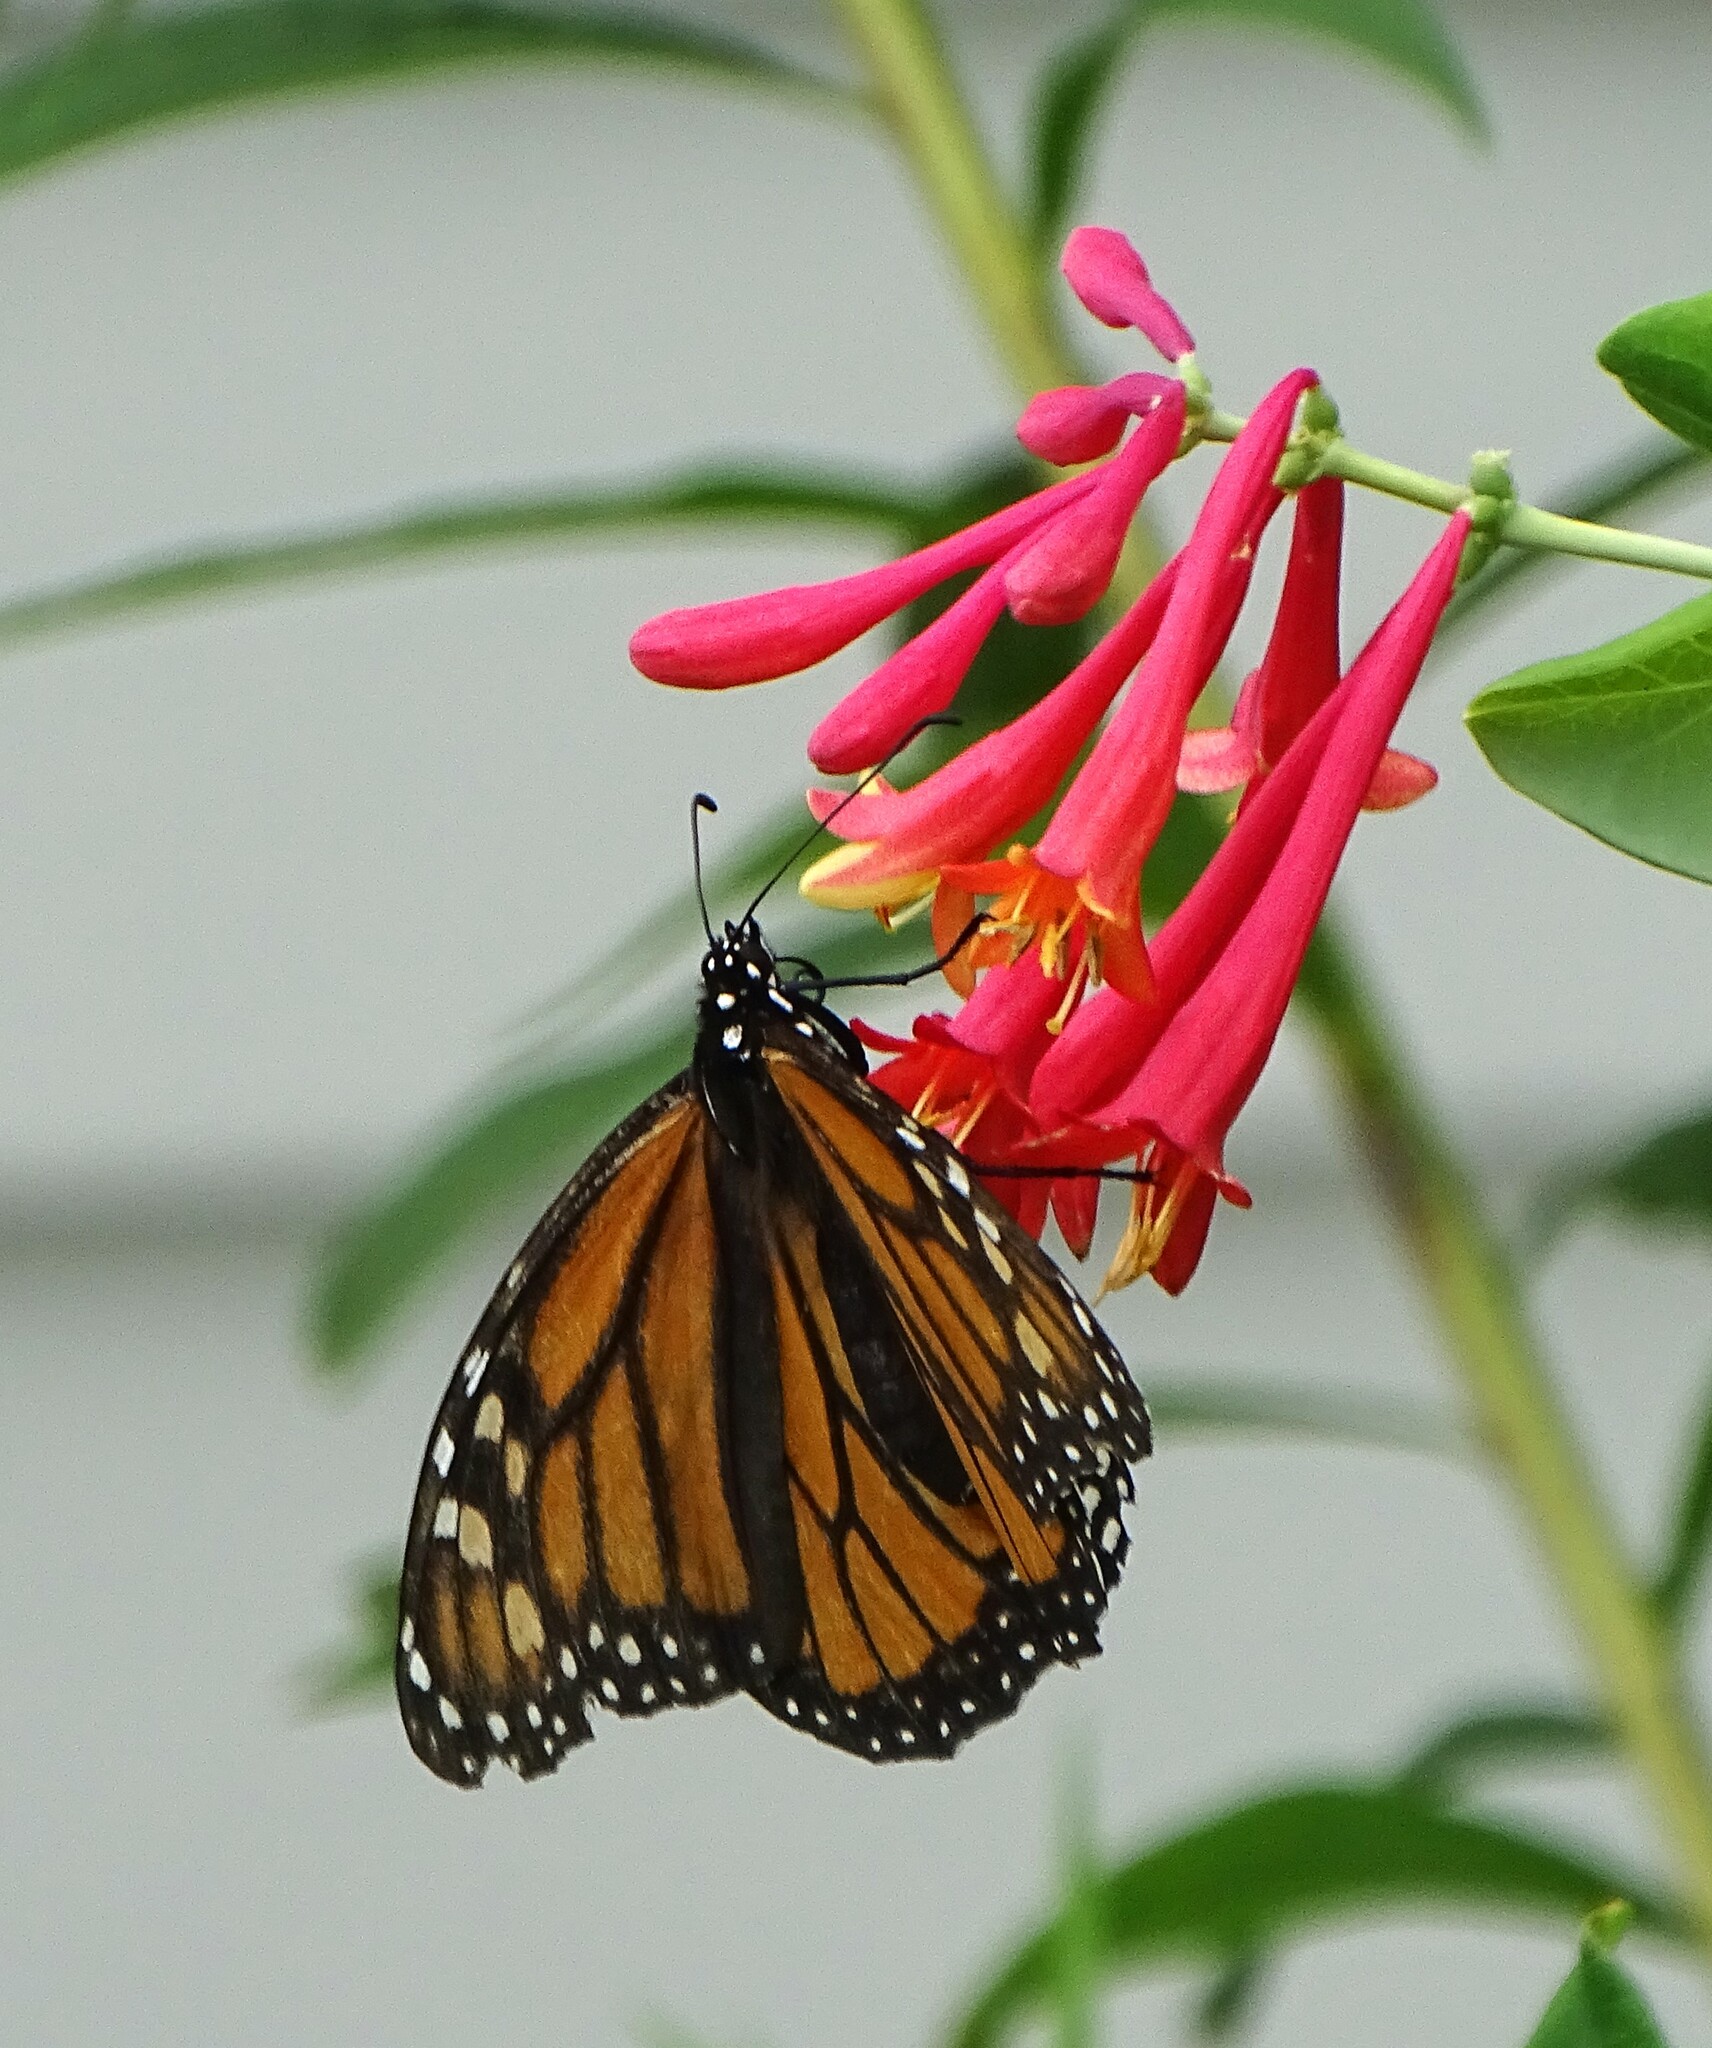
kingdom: Animalia
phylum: Arthropoda
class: Insecta
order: Lepidoptera
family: Nymphalidae
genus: Danaus
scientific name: Danaus plexippus
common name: Monarch
